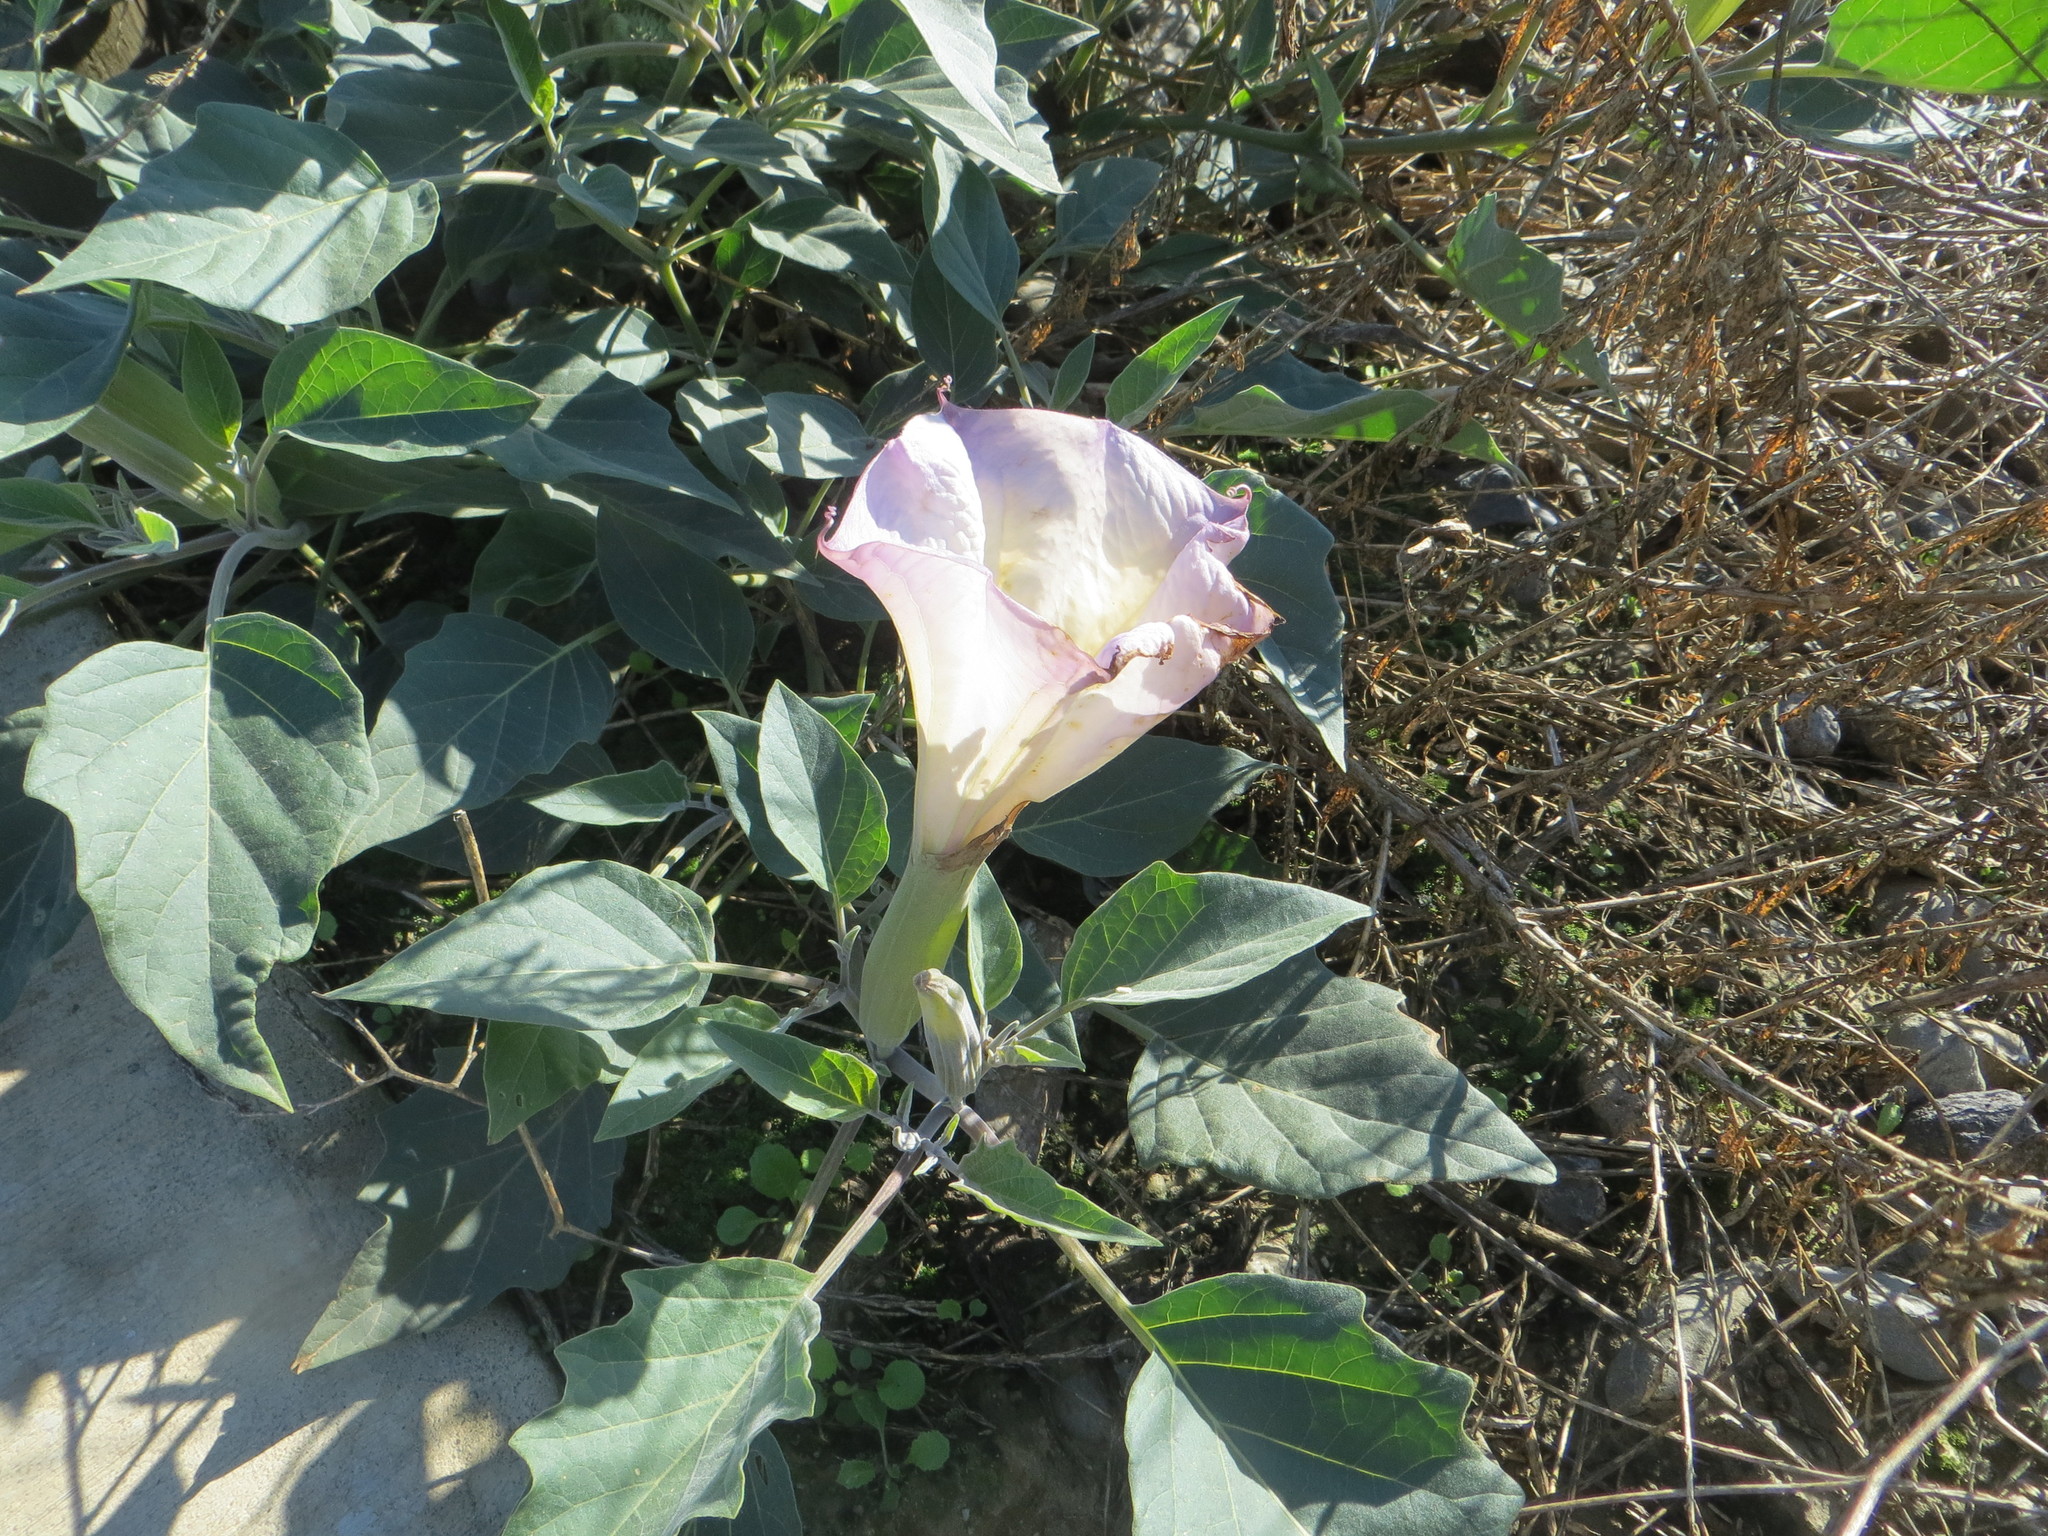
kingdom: Plantae
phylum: Tracheophyta
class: Magnoliopsida
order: Solanales
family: Solanaceae
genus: Datura
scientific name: Datura wrightii
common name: Sacred thorn-apple
